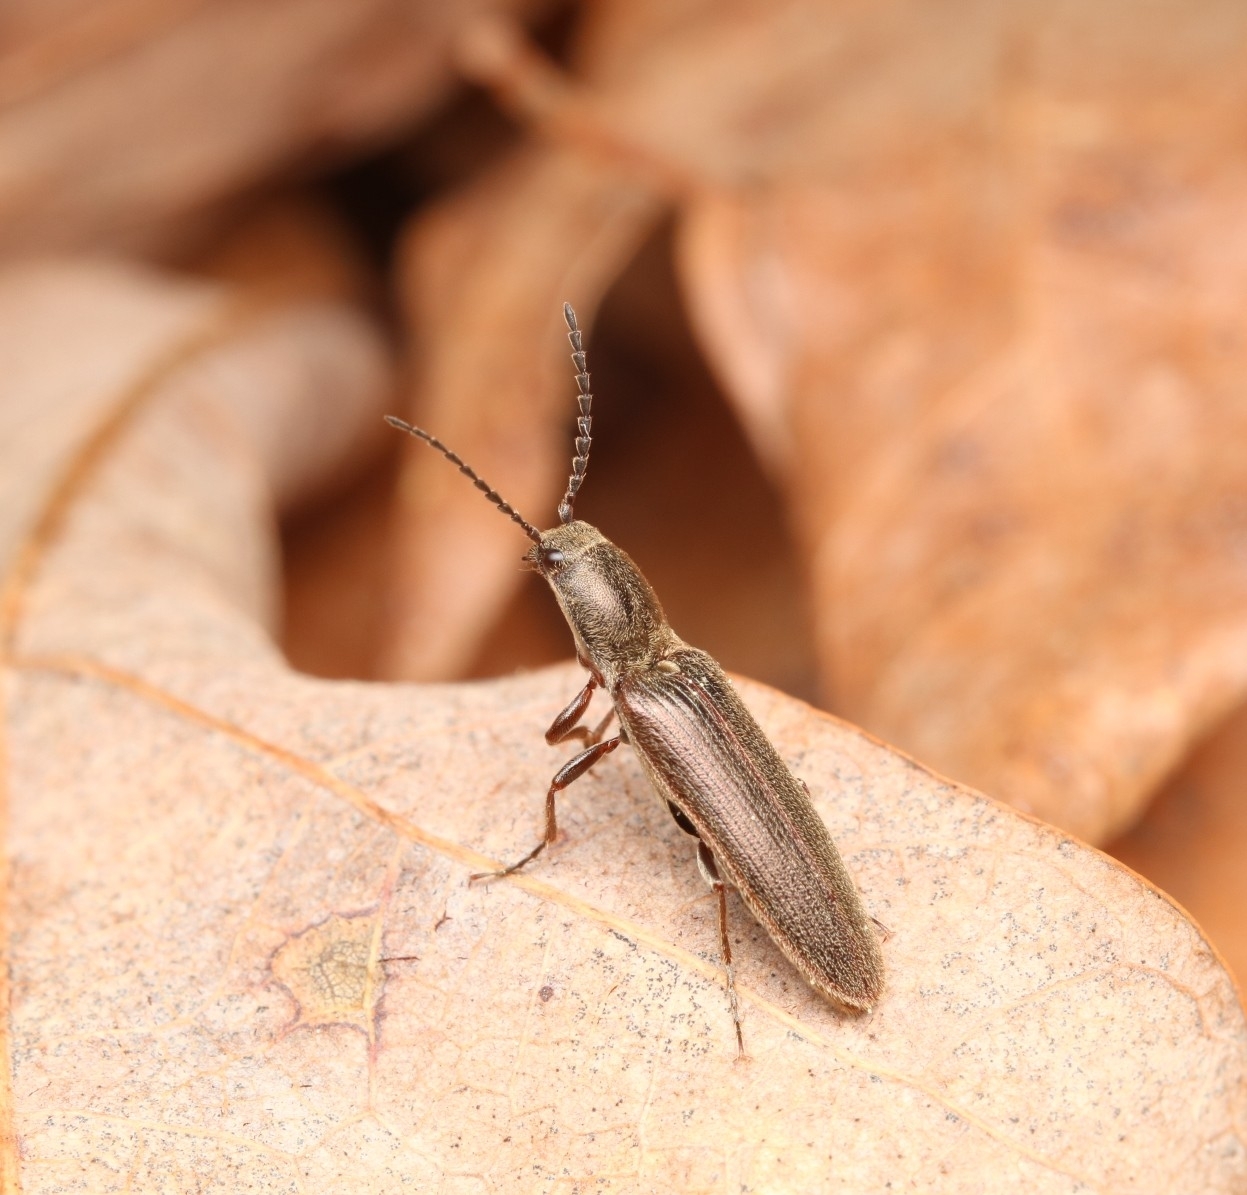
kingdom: Animalia
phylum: Arthropoda
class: Insecta
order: Coleoptera
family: Elateridae
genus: Sylvanelater
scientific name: Sylvanelater cylindriformis
